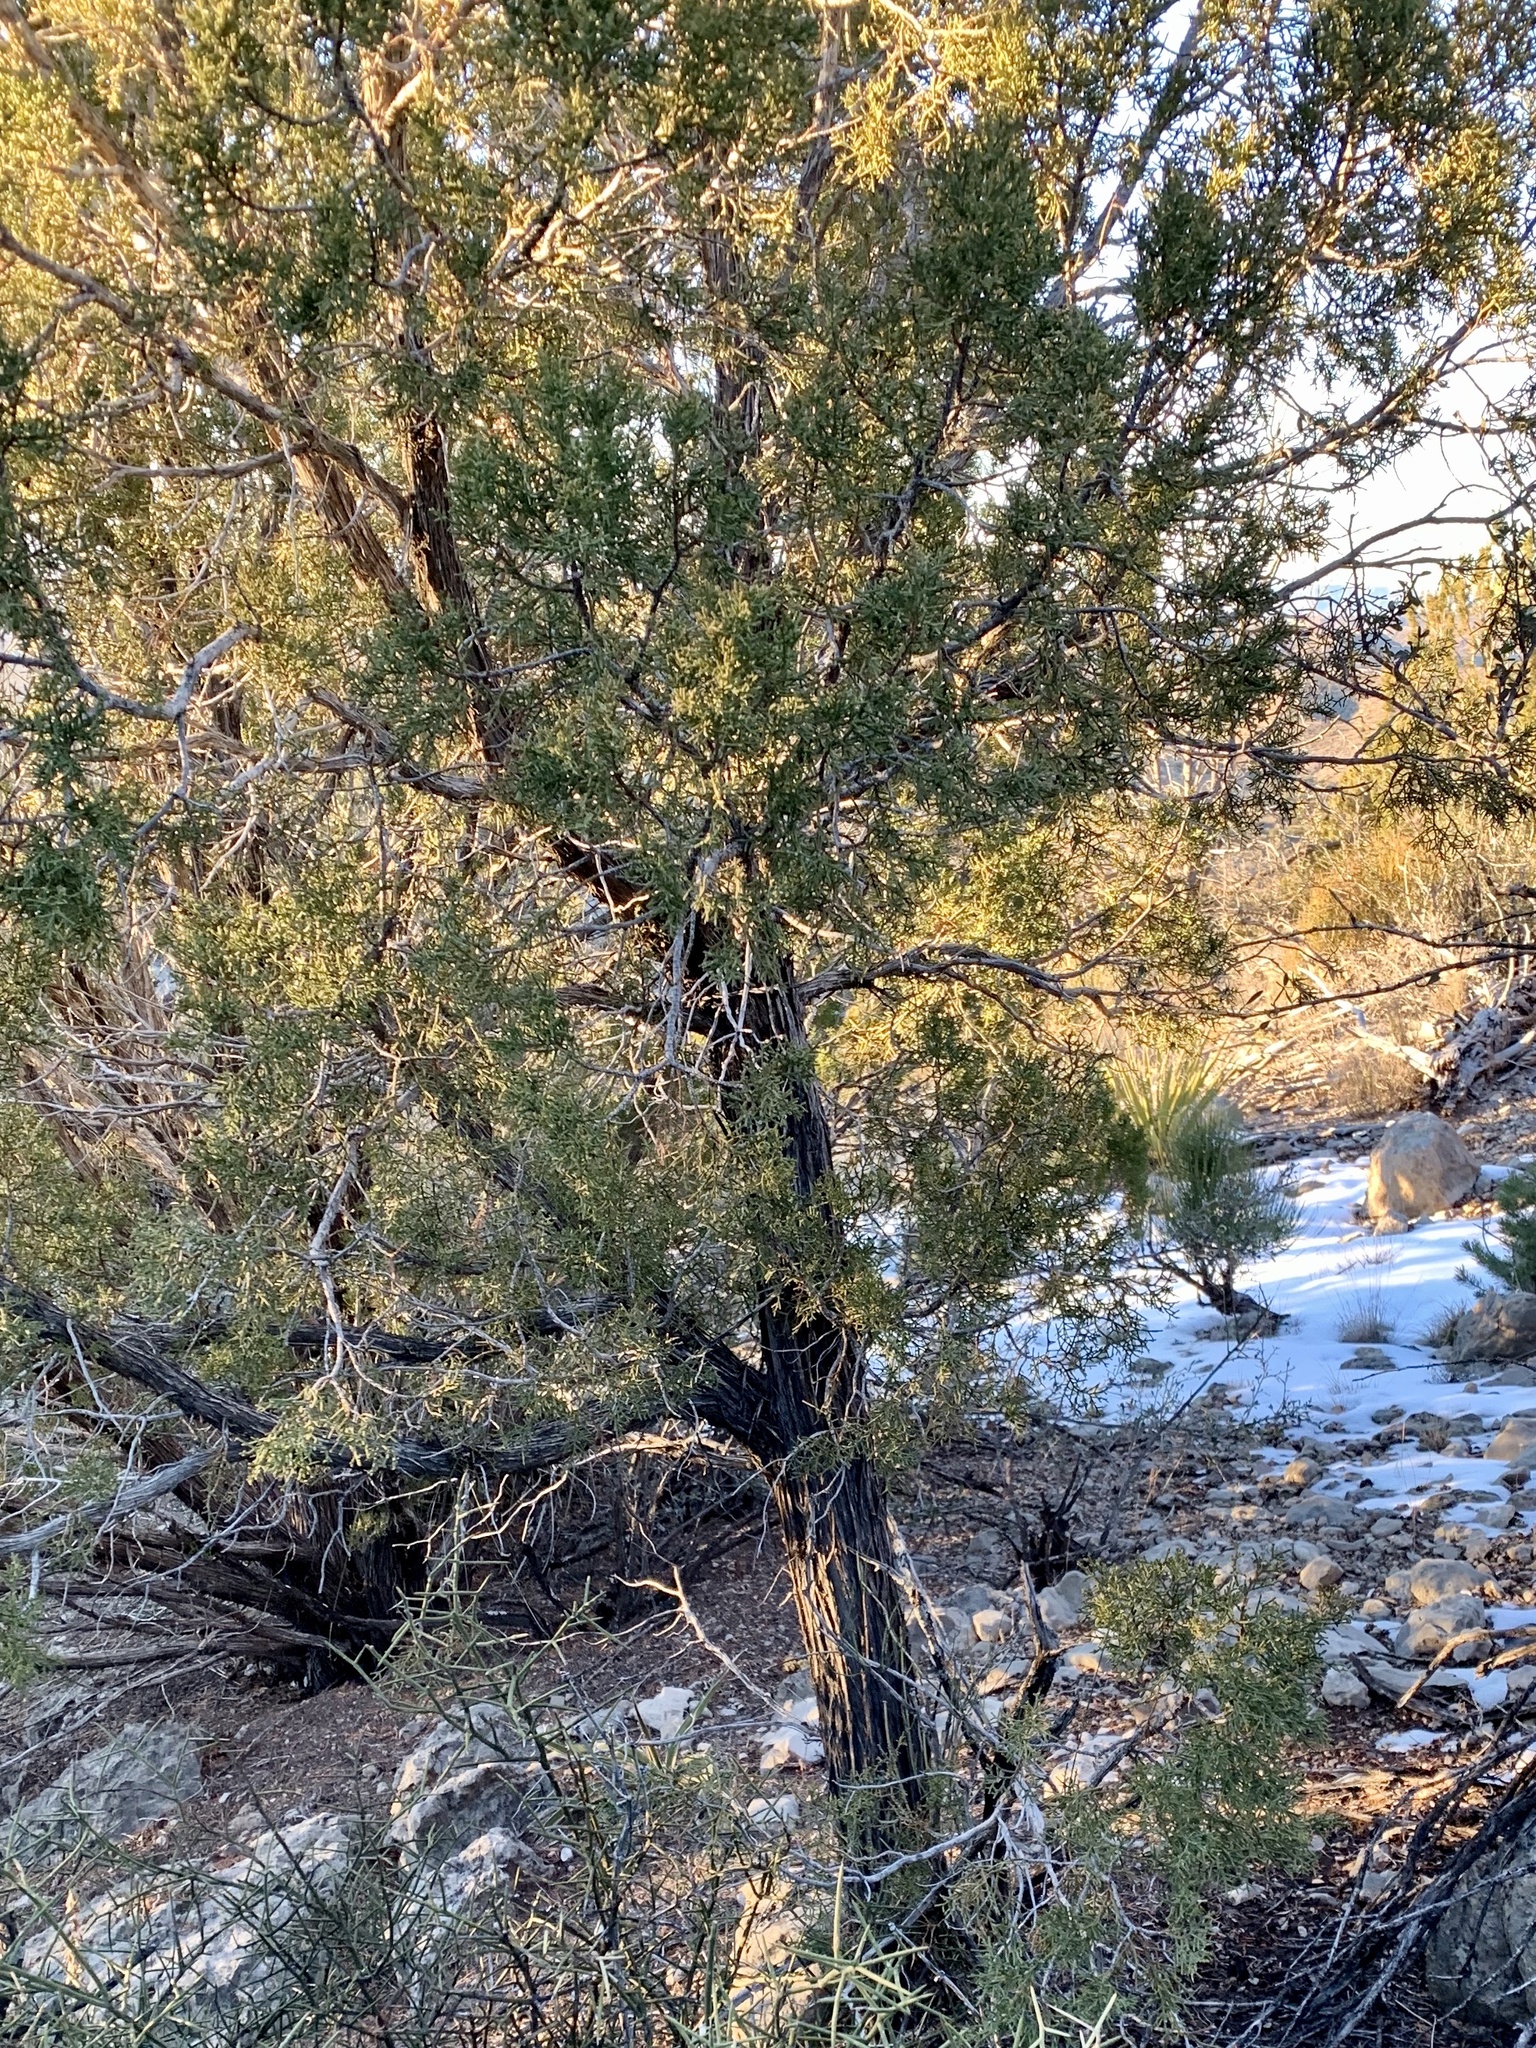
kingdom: Plantae
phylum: Tracheophyta
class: Pinopsida
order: Pinales
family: Cupressaceae
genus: Juniperus
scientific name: Juniperus monosperma
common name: One-seed juniper
